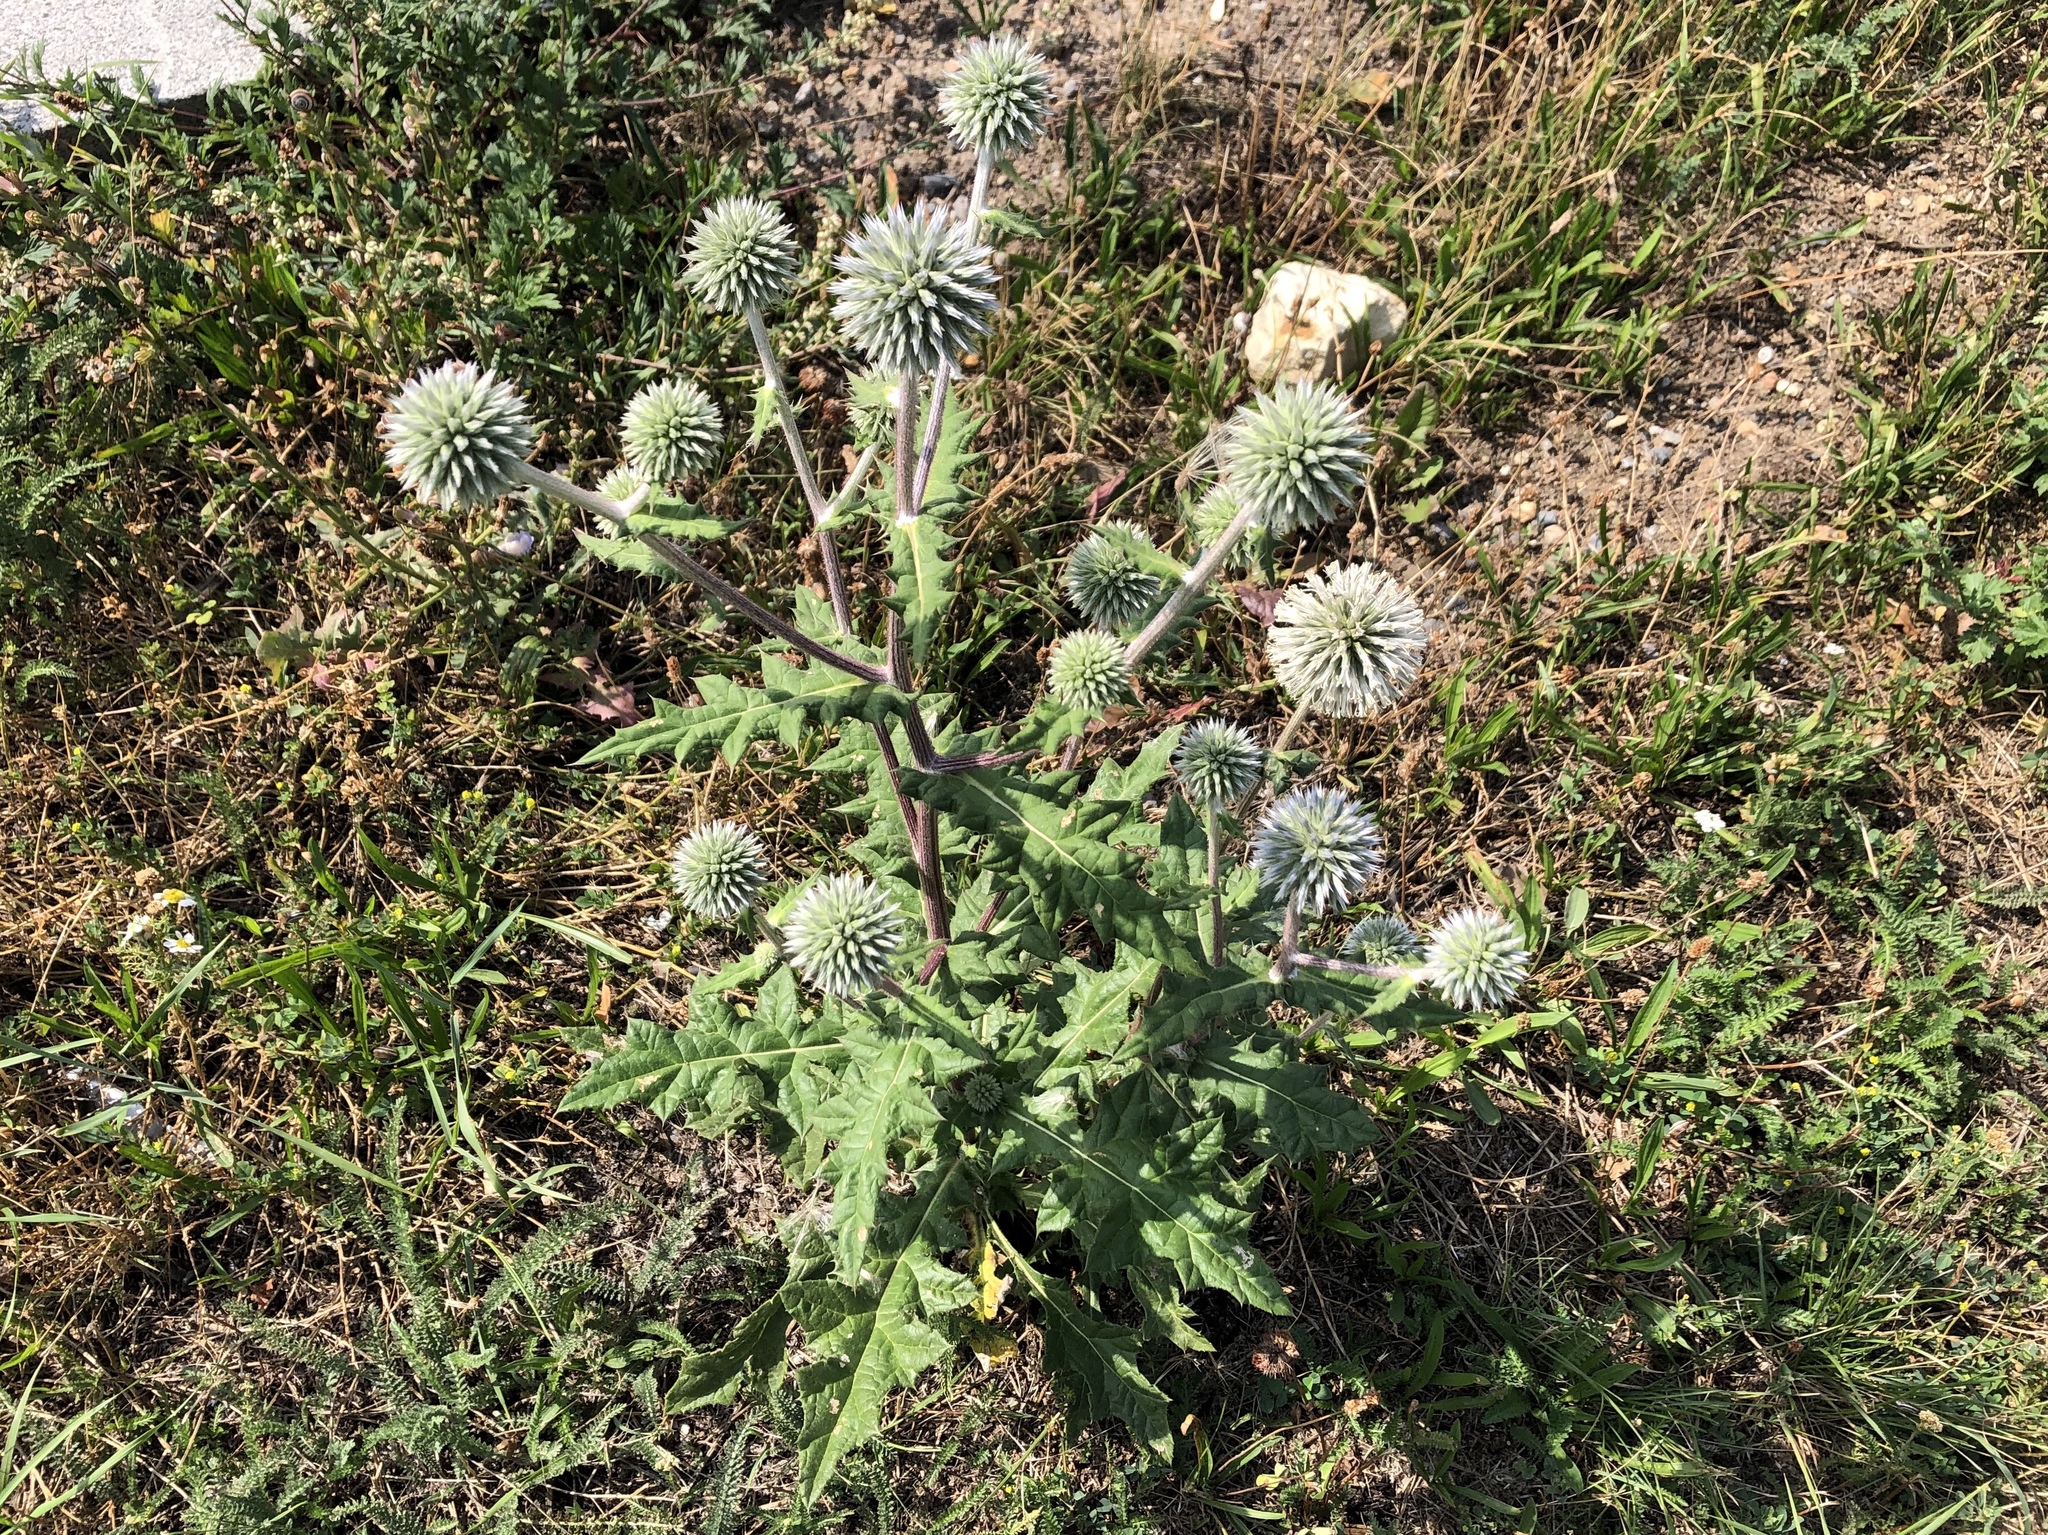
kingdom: Plantae
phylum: Tracheophyta
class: Magnoliopsida
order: Asterales
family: Asteraceae
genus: Echinops
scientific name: Echinops sphaerocephalus
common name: Glandular globe-thistle
